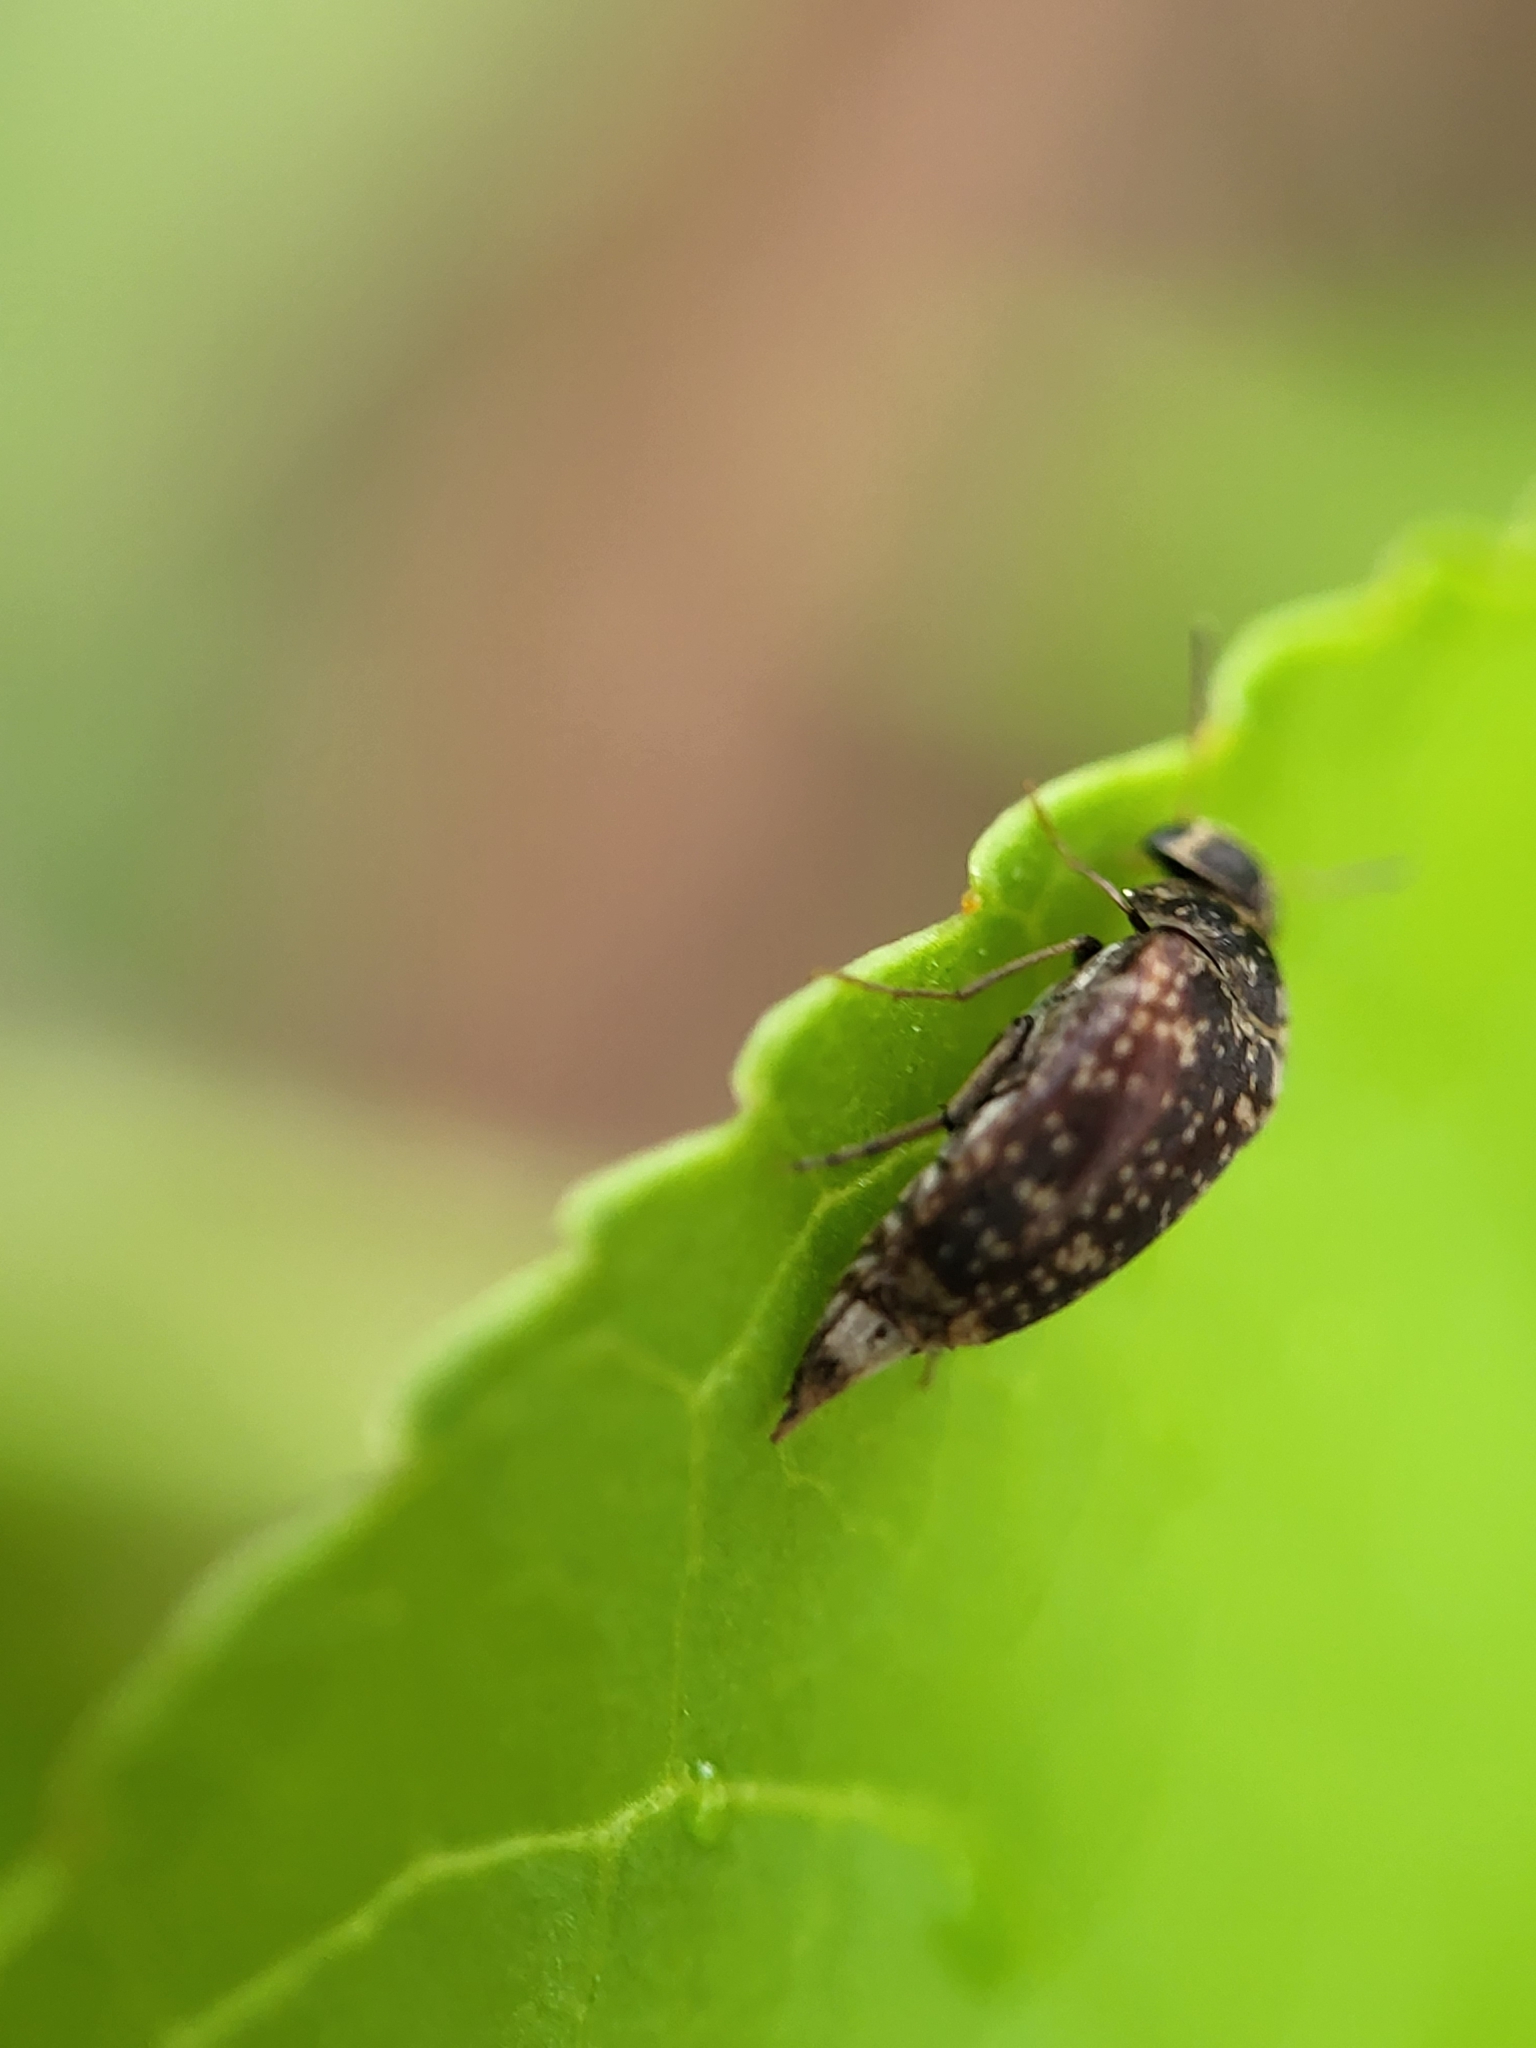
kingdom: Animalia
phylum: Arthropoda
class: Insecta
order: Coleoptera
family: Mordellidae
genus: Mordellaria
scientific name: Mordellaria serval
